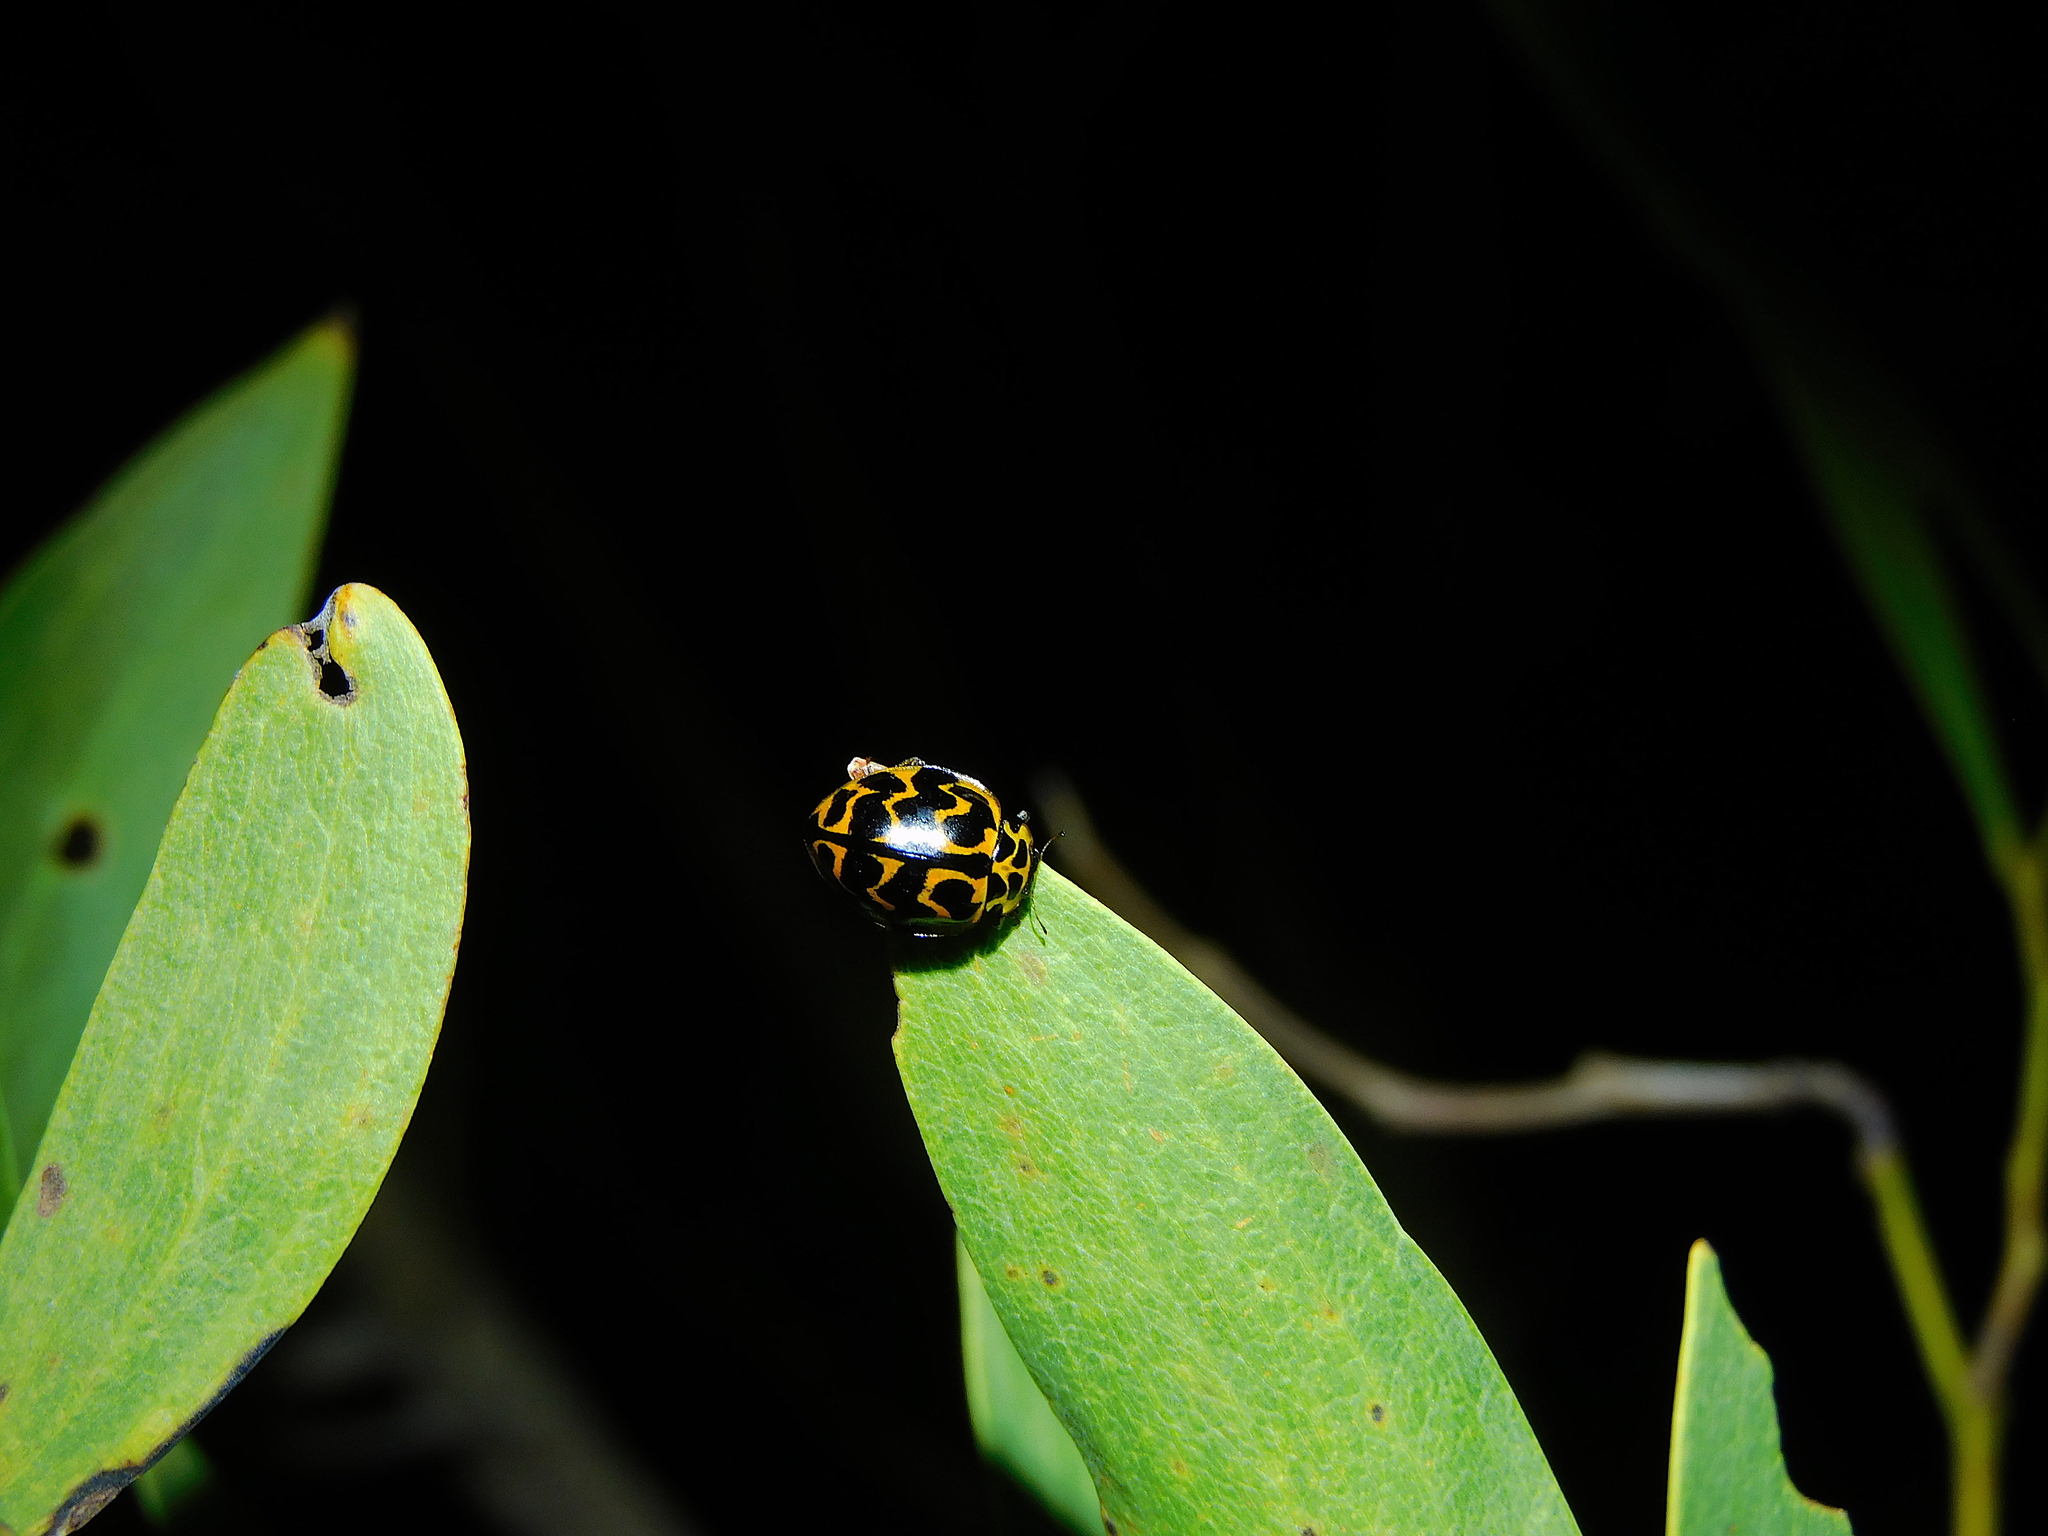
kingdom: Animalia
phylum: Arthropoda
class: Insecta
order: Coleoptera
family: Coccinellidae
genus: Cleobora
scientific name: Cleobora
